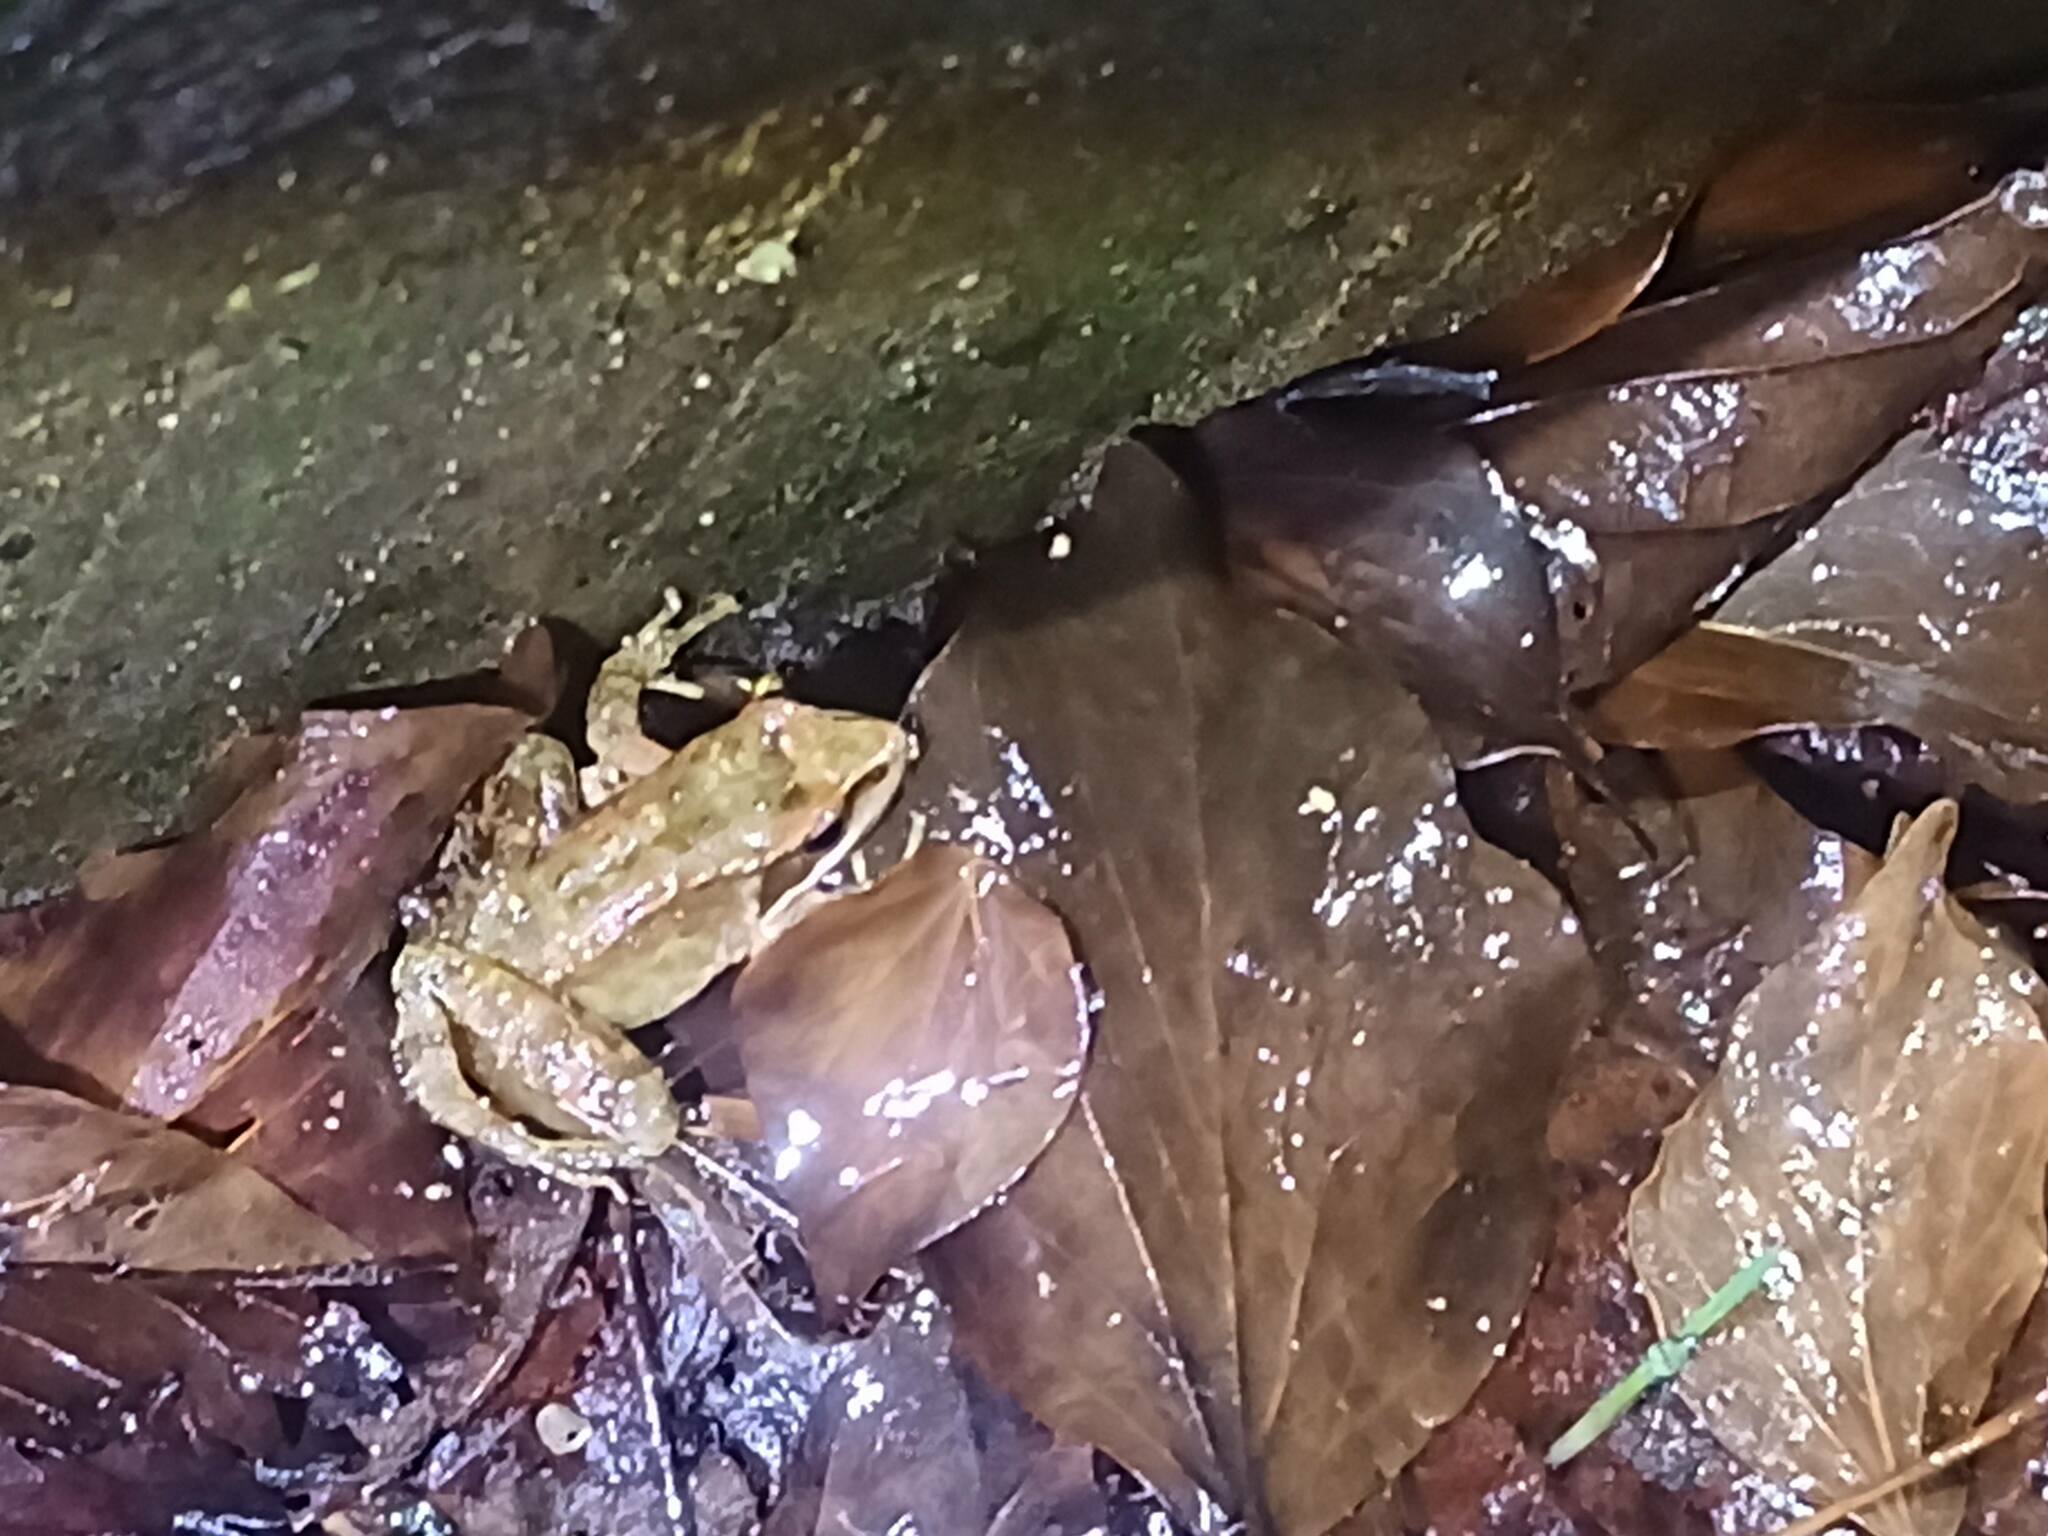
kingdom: Animalia
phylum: Chordata
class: Amphibia
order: Anura
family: Ranidae
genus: Rana
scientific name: Rana iberica
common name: Iberian frog
